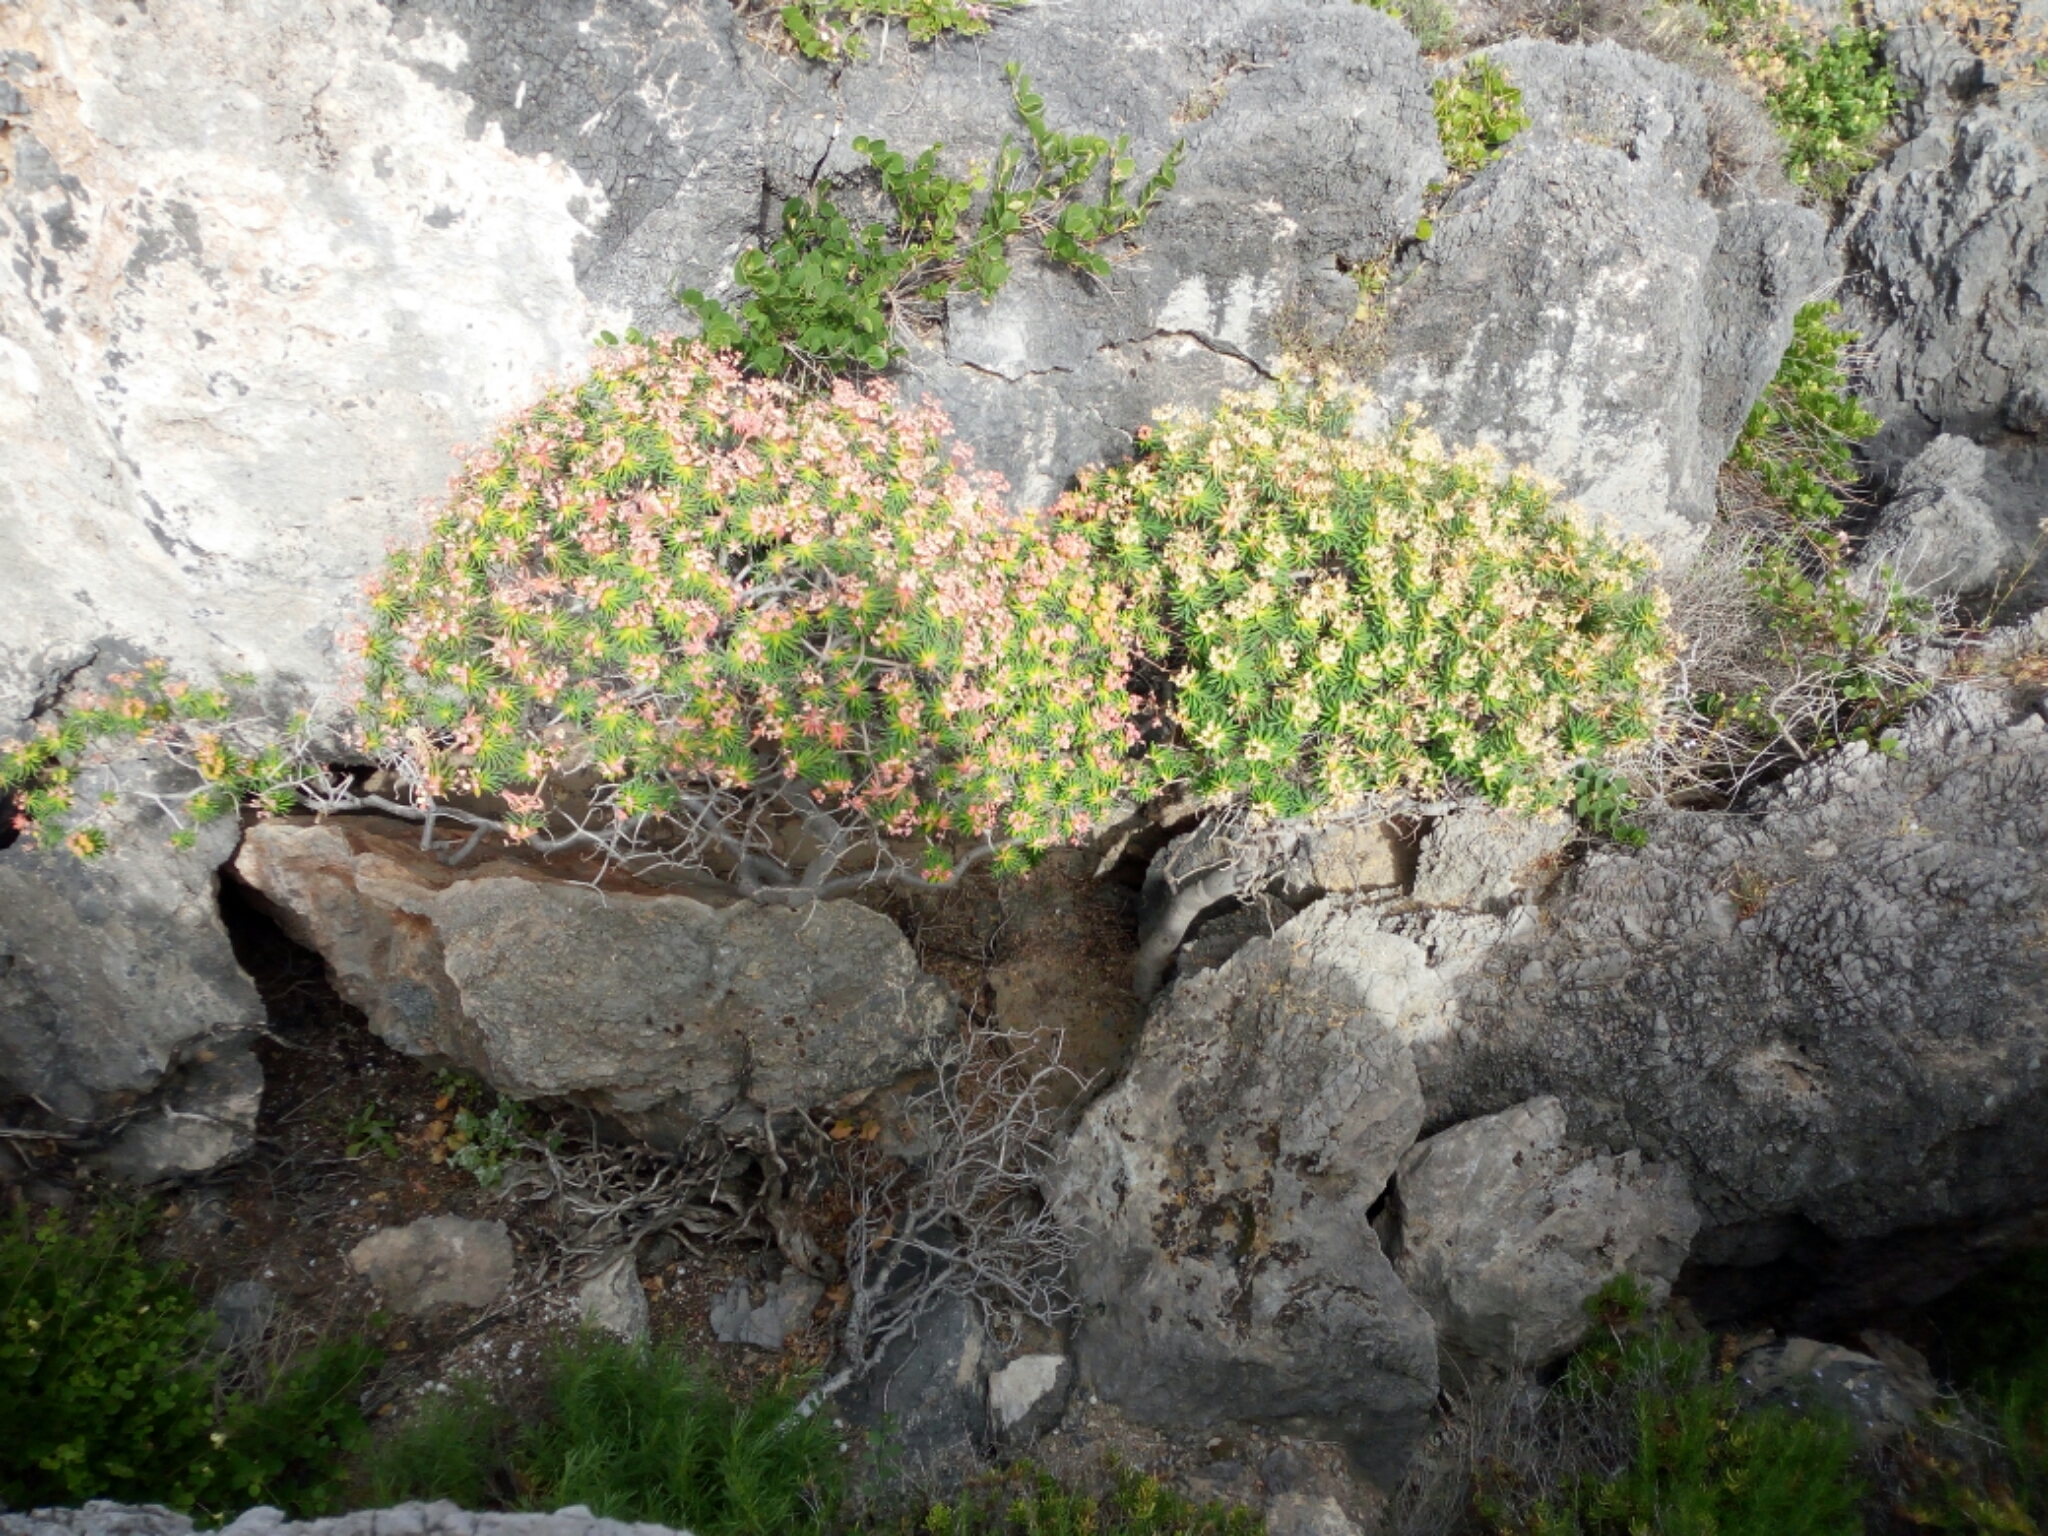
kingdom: Plantae
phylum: Tracheophyta
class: Magnoliopsida
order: Malpighiales
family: Euphorbiaceae
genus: Euphorbia
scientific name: Euphorbia dendroides
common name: Tree spurge
